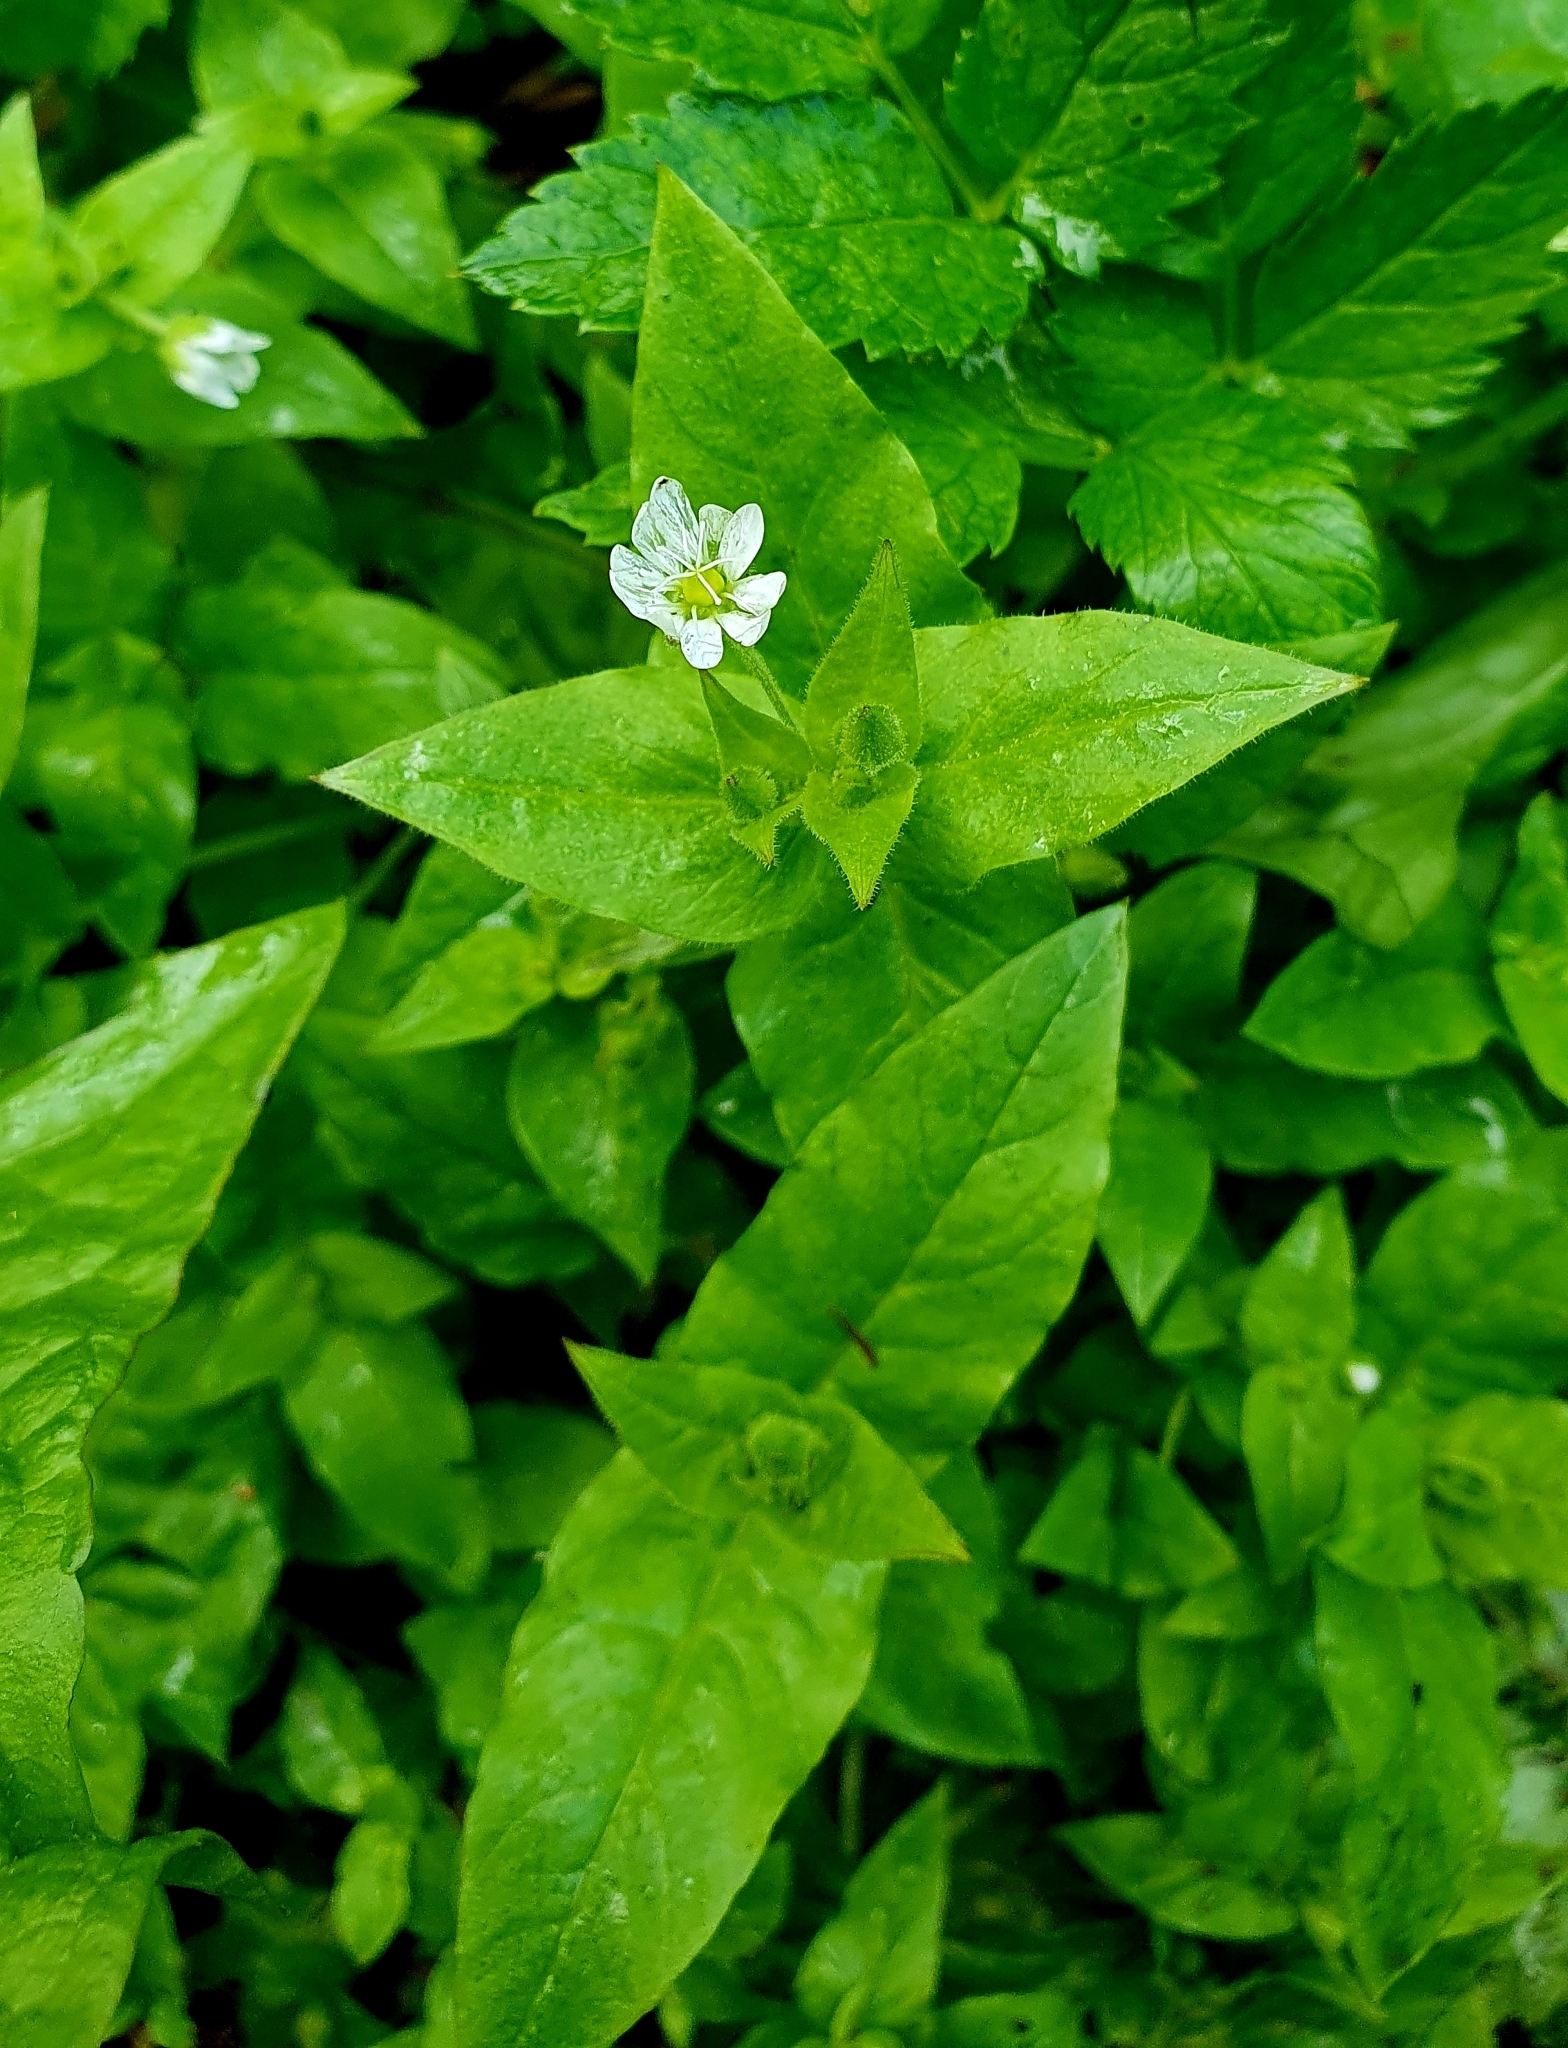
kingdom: Plantae
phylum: Tracheophyta
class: Magnoliopsida
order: Caryophyllales
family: Caryophyllaceae
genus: Stellaria
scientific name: Stellaria aquatica
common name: Water chickweed
